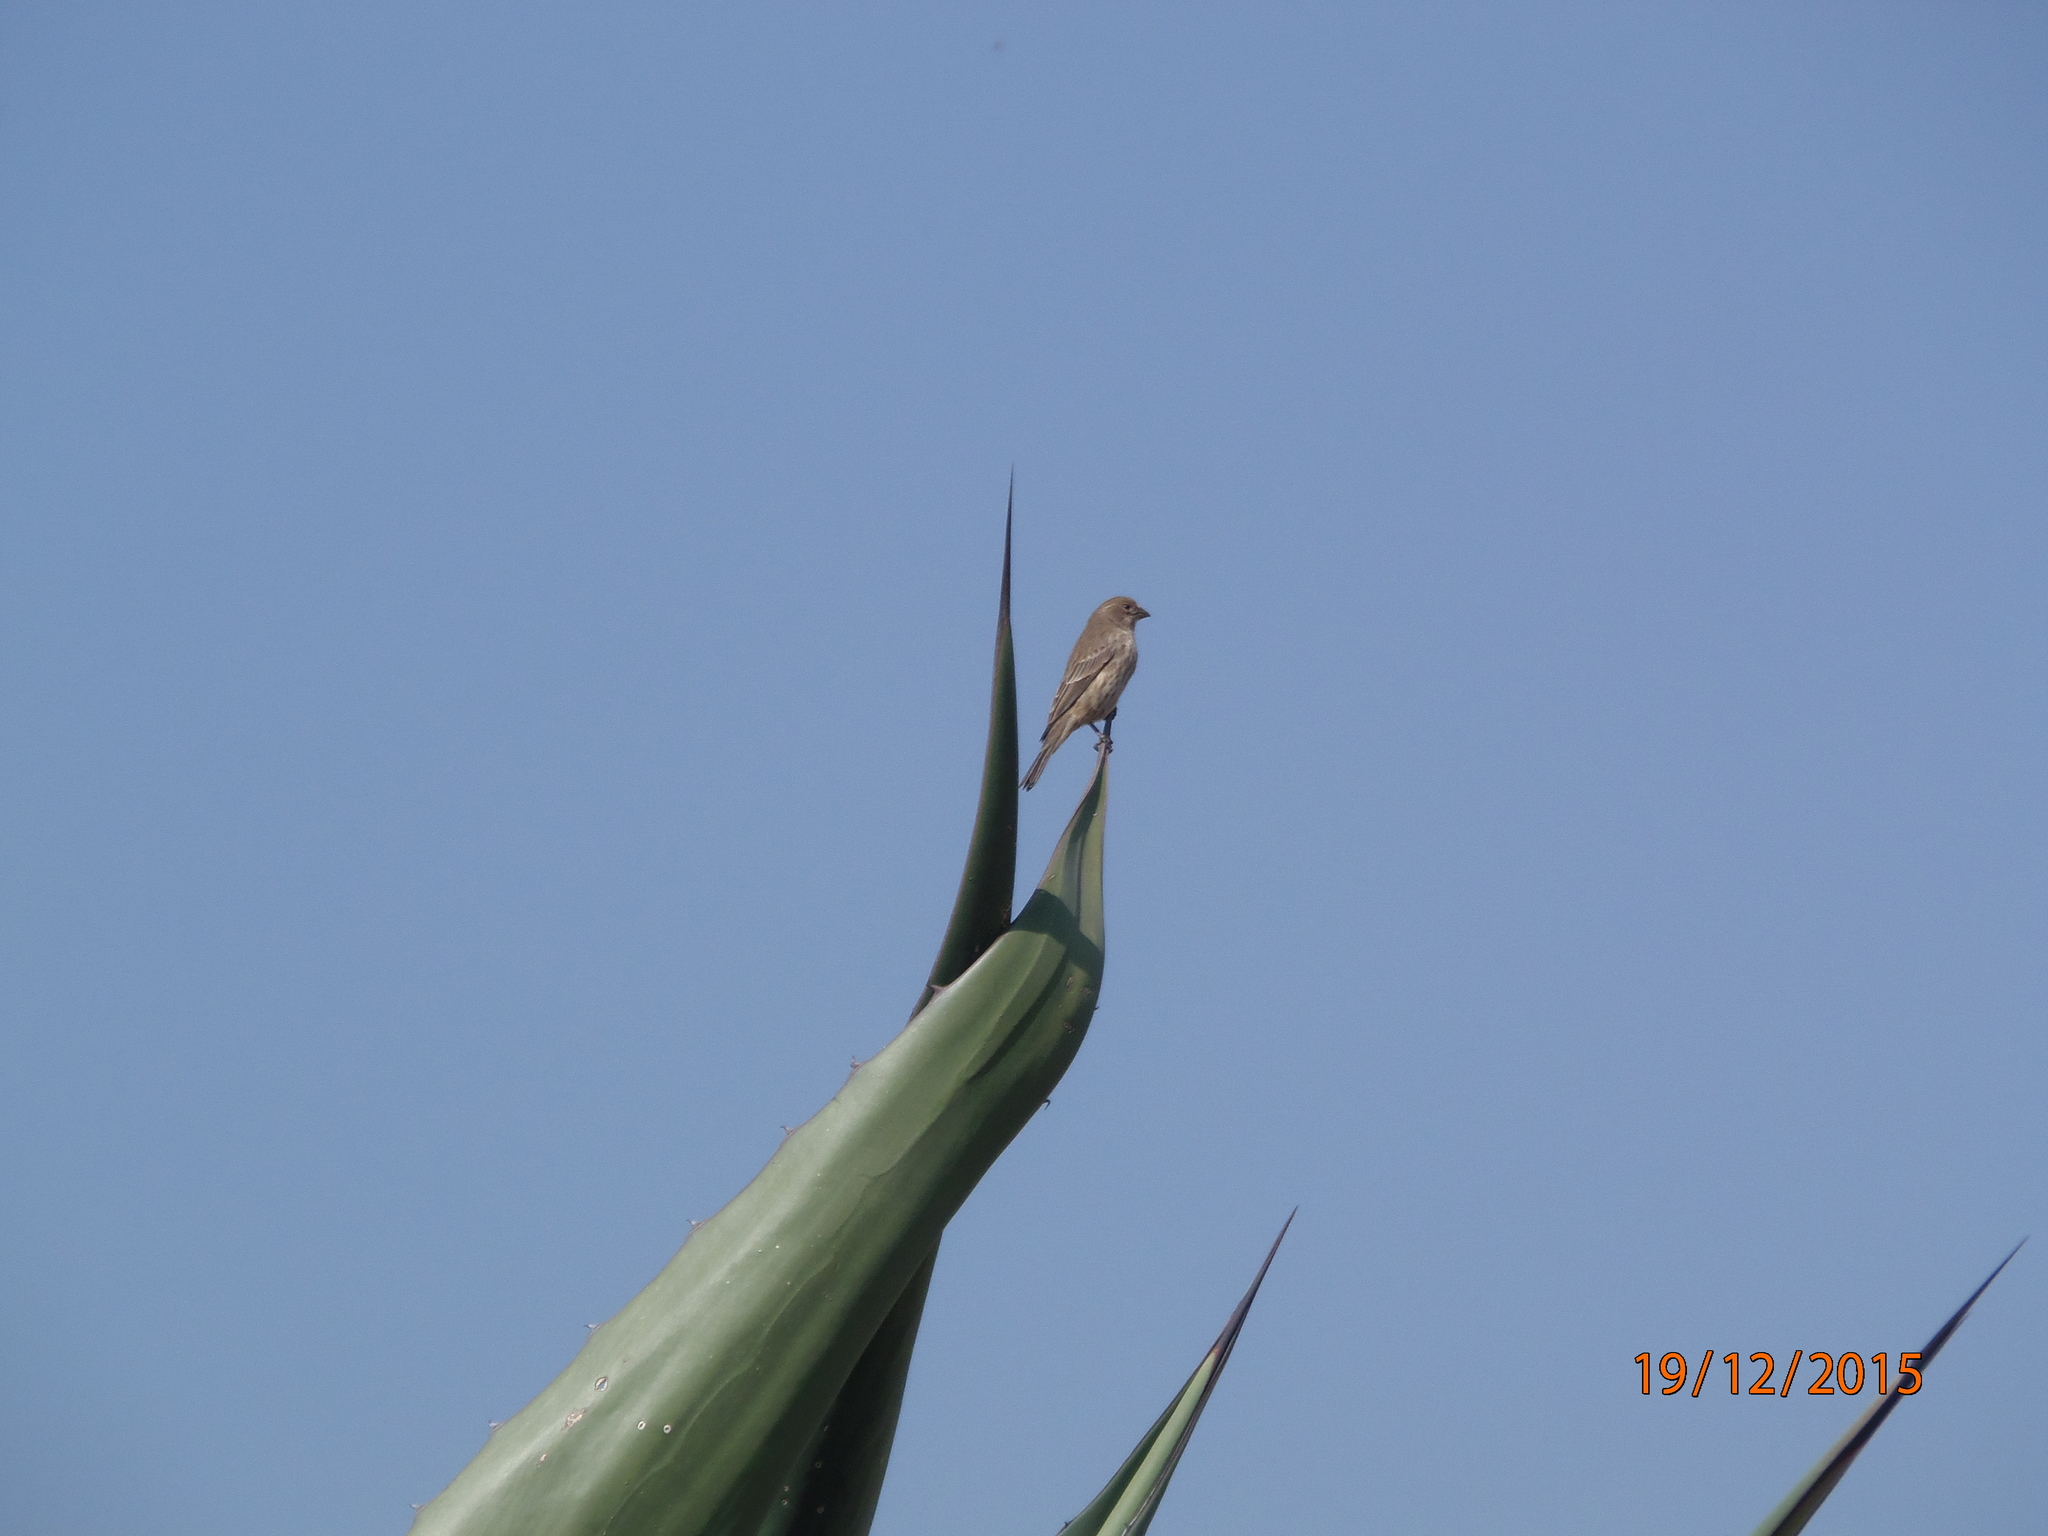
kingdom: Animalia
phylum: Chordata
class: Aves
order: Passeriformes
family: Fringillidae
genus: Haemorhous
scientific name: Haemorhous mexicanus
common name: House finch
